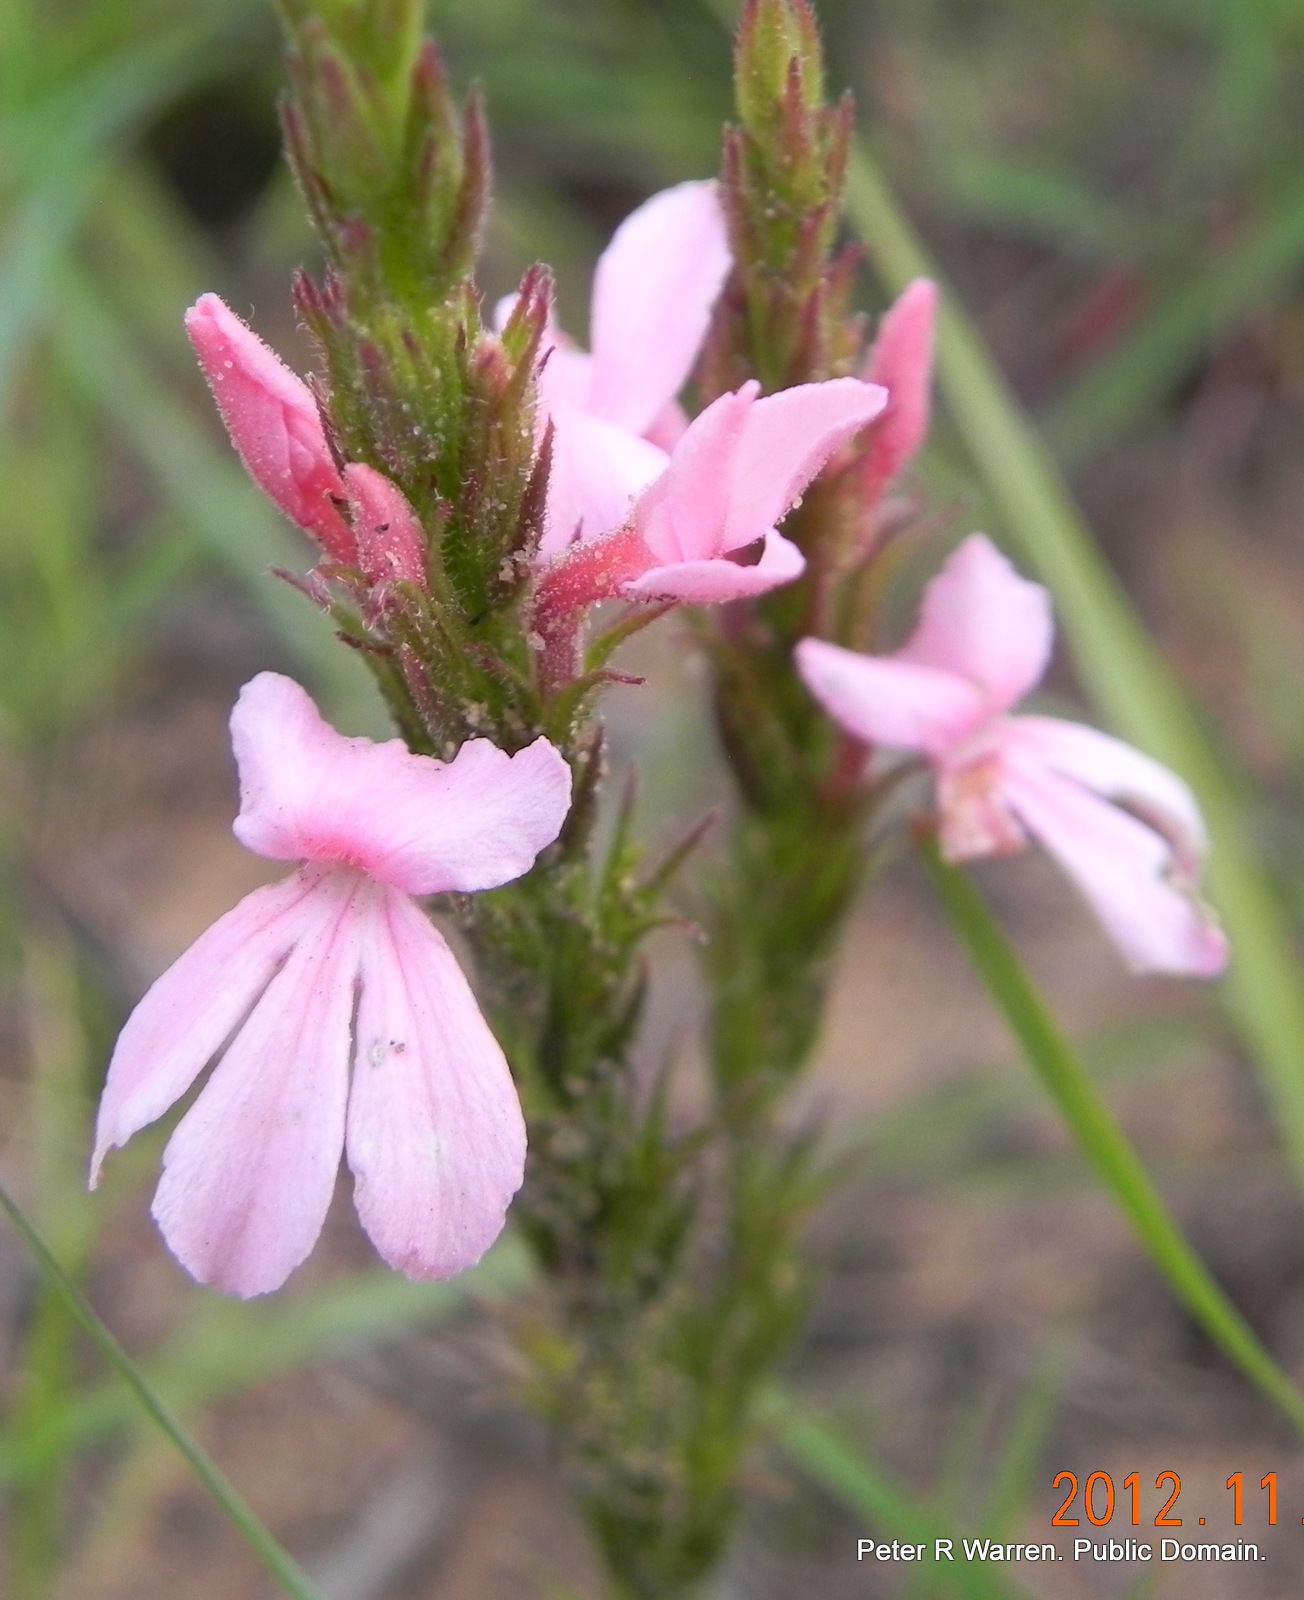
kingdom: Plantae
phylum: Tracheophyta
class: Magnoliopsida
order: Lamiales
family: Orobanchaceae
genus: Striga
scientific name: Striga bilabiata
